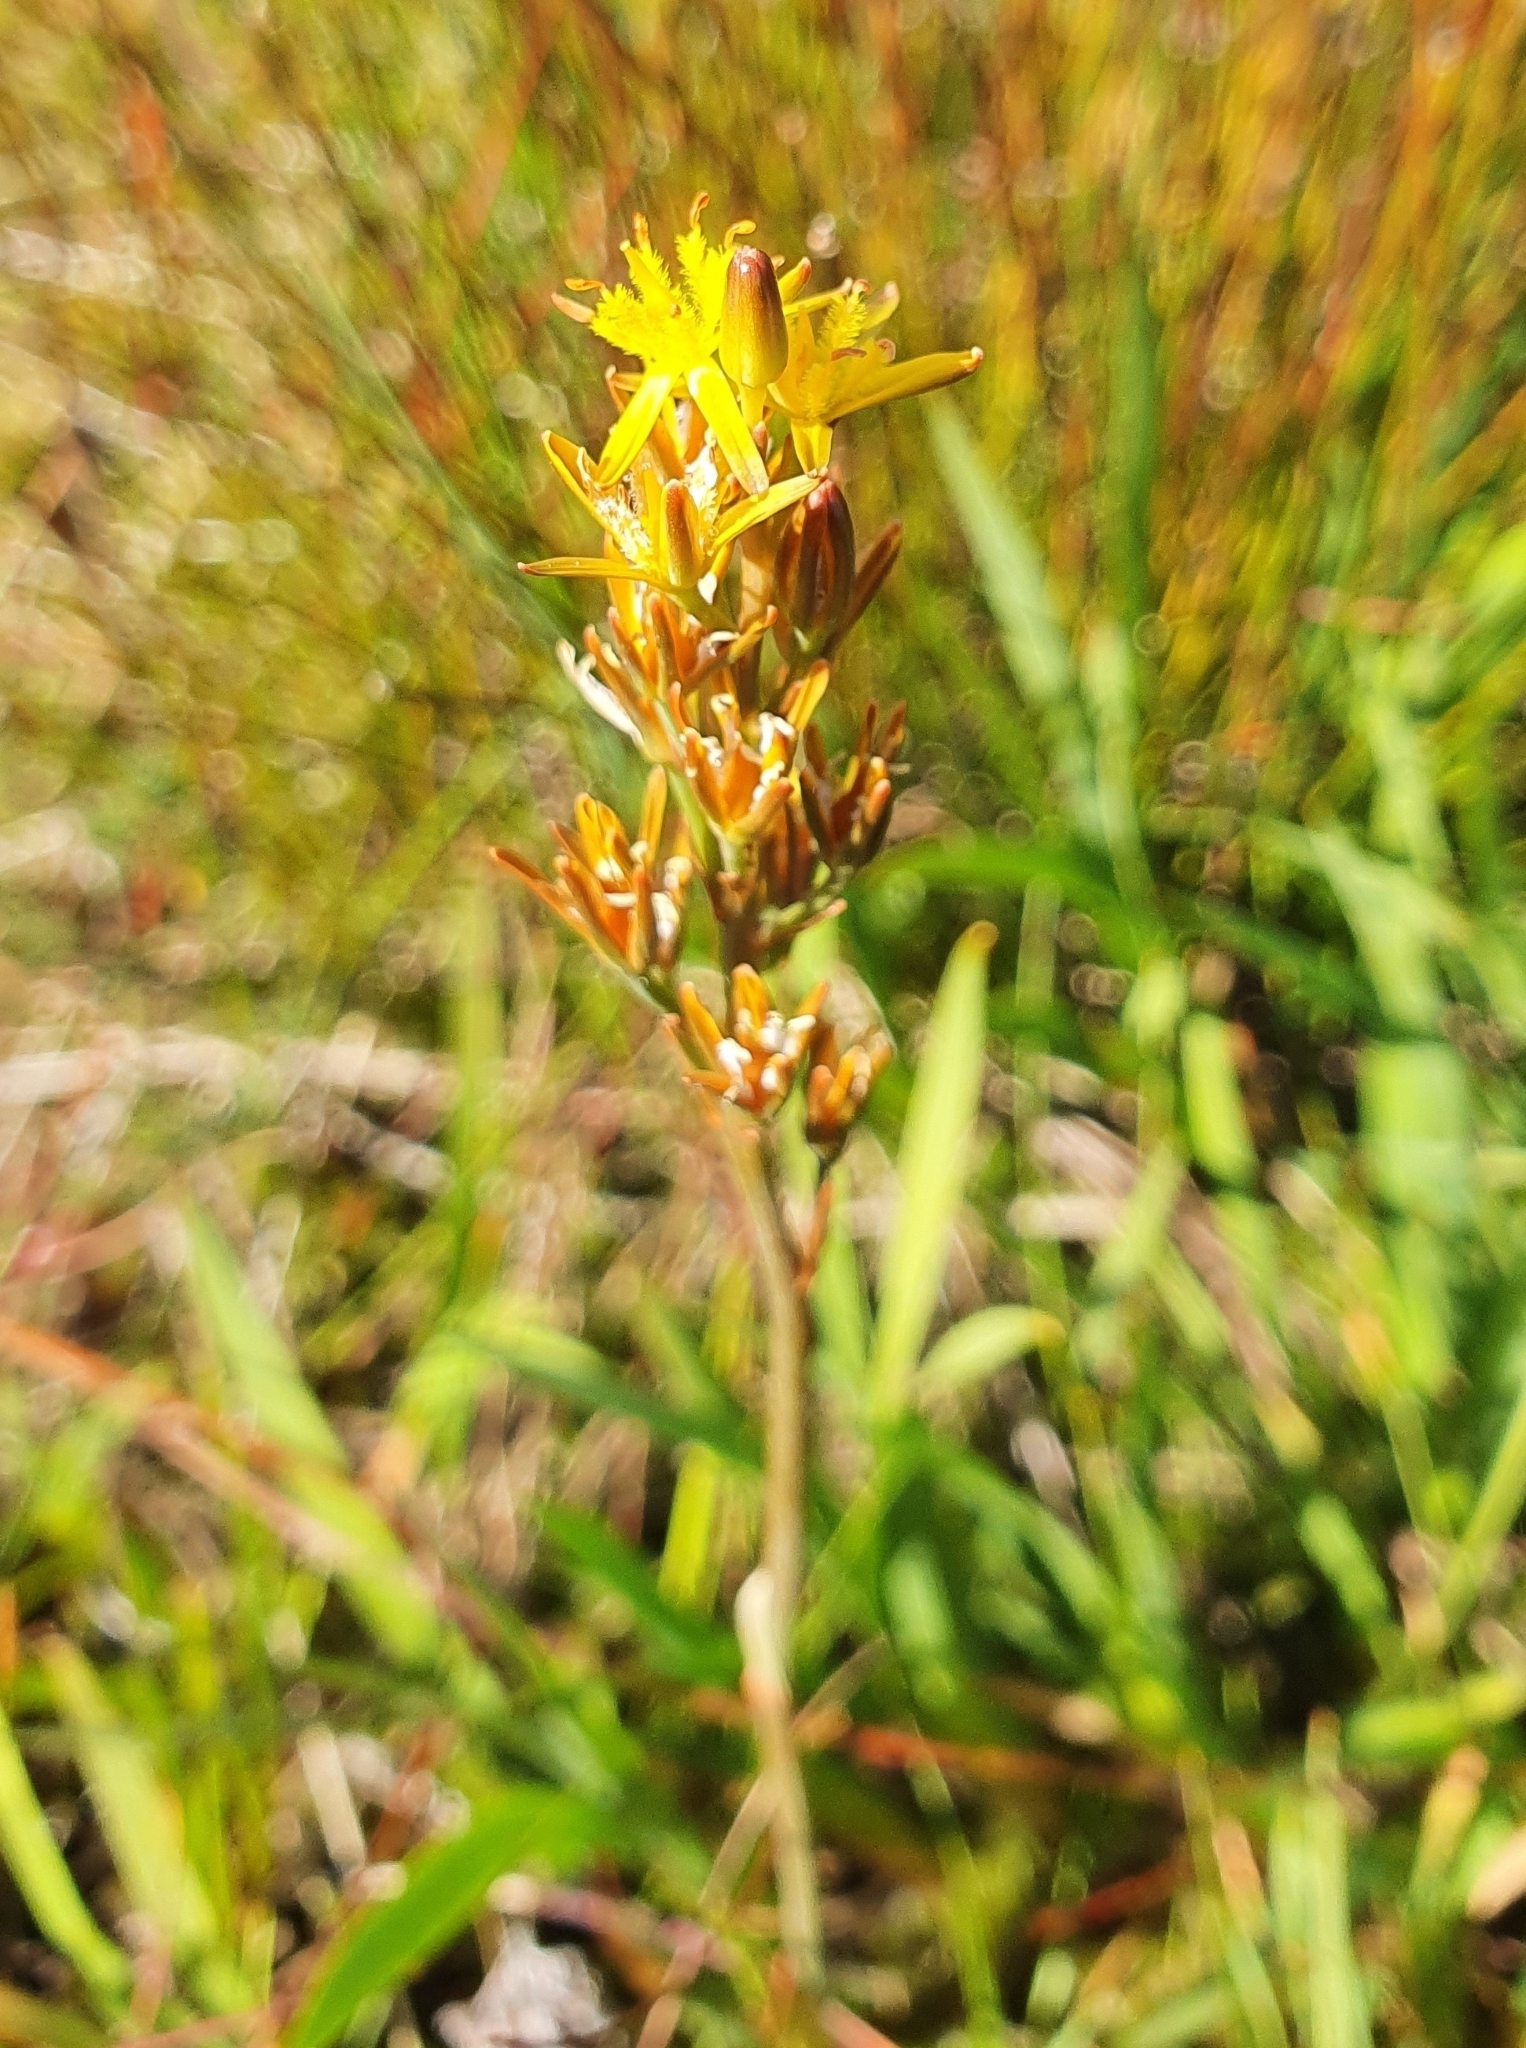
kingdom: Plantae
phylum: Tracheophyta
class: Liliopsida
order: Dioscoreales
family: Nartheciaceae
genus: Narthecium
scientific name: Narthecium ossifragum
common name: Bog asphodel
